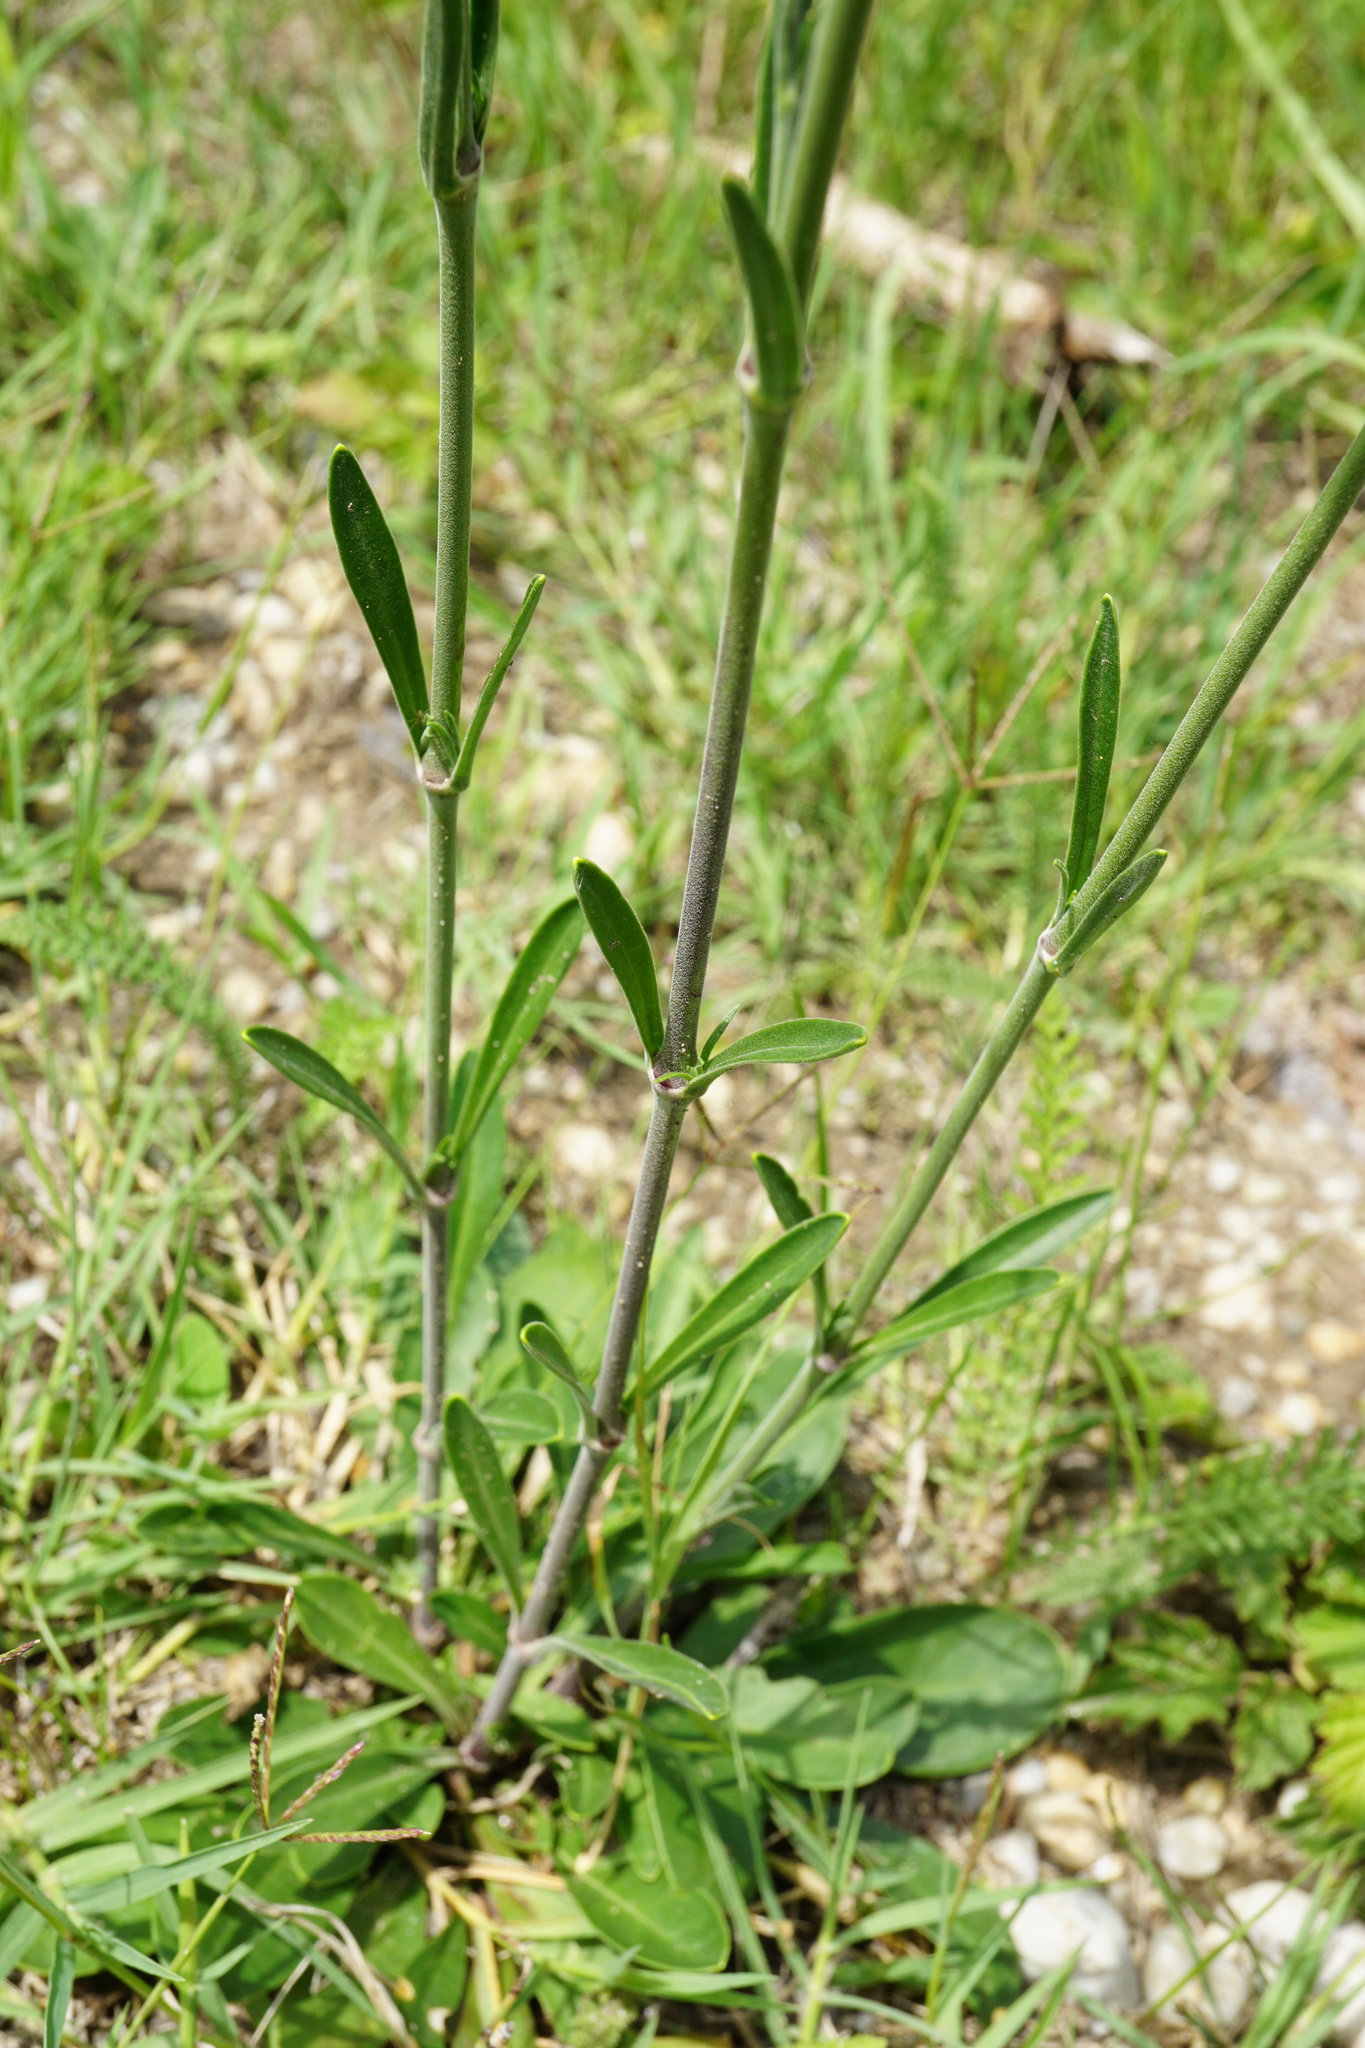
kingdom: Plantae
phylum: Tracheophyta
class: Magnoliopsida
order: Caryophyllales
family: Caryophyllaceae
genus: Silene
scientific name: Silene multiflora
